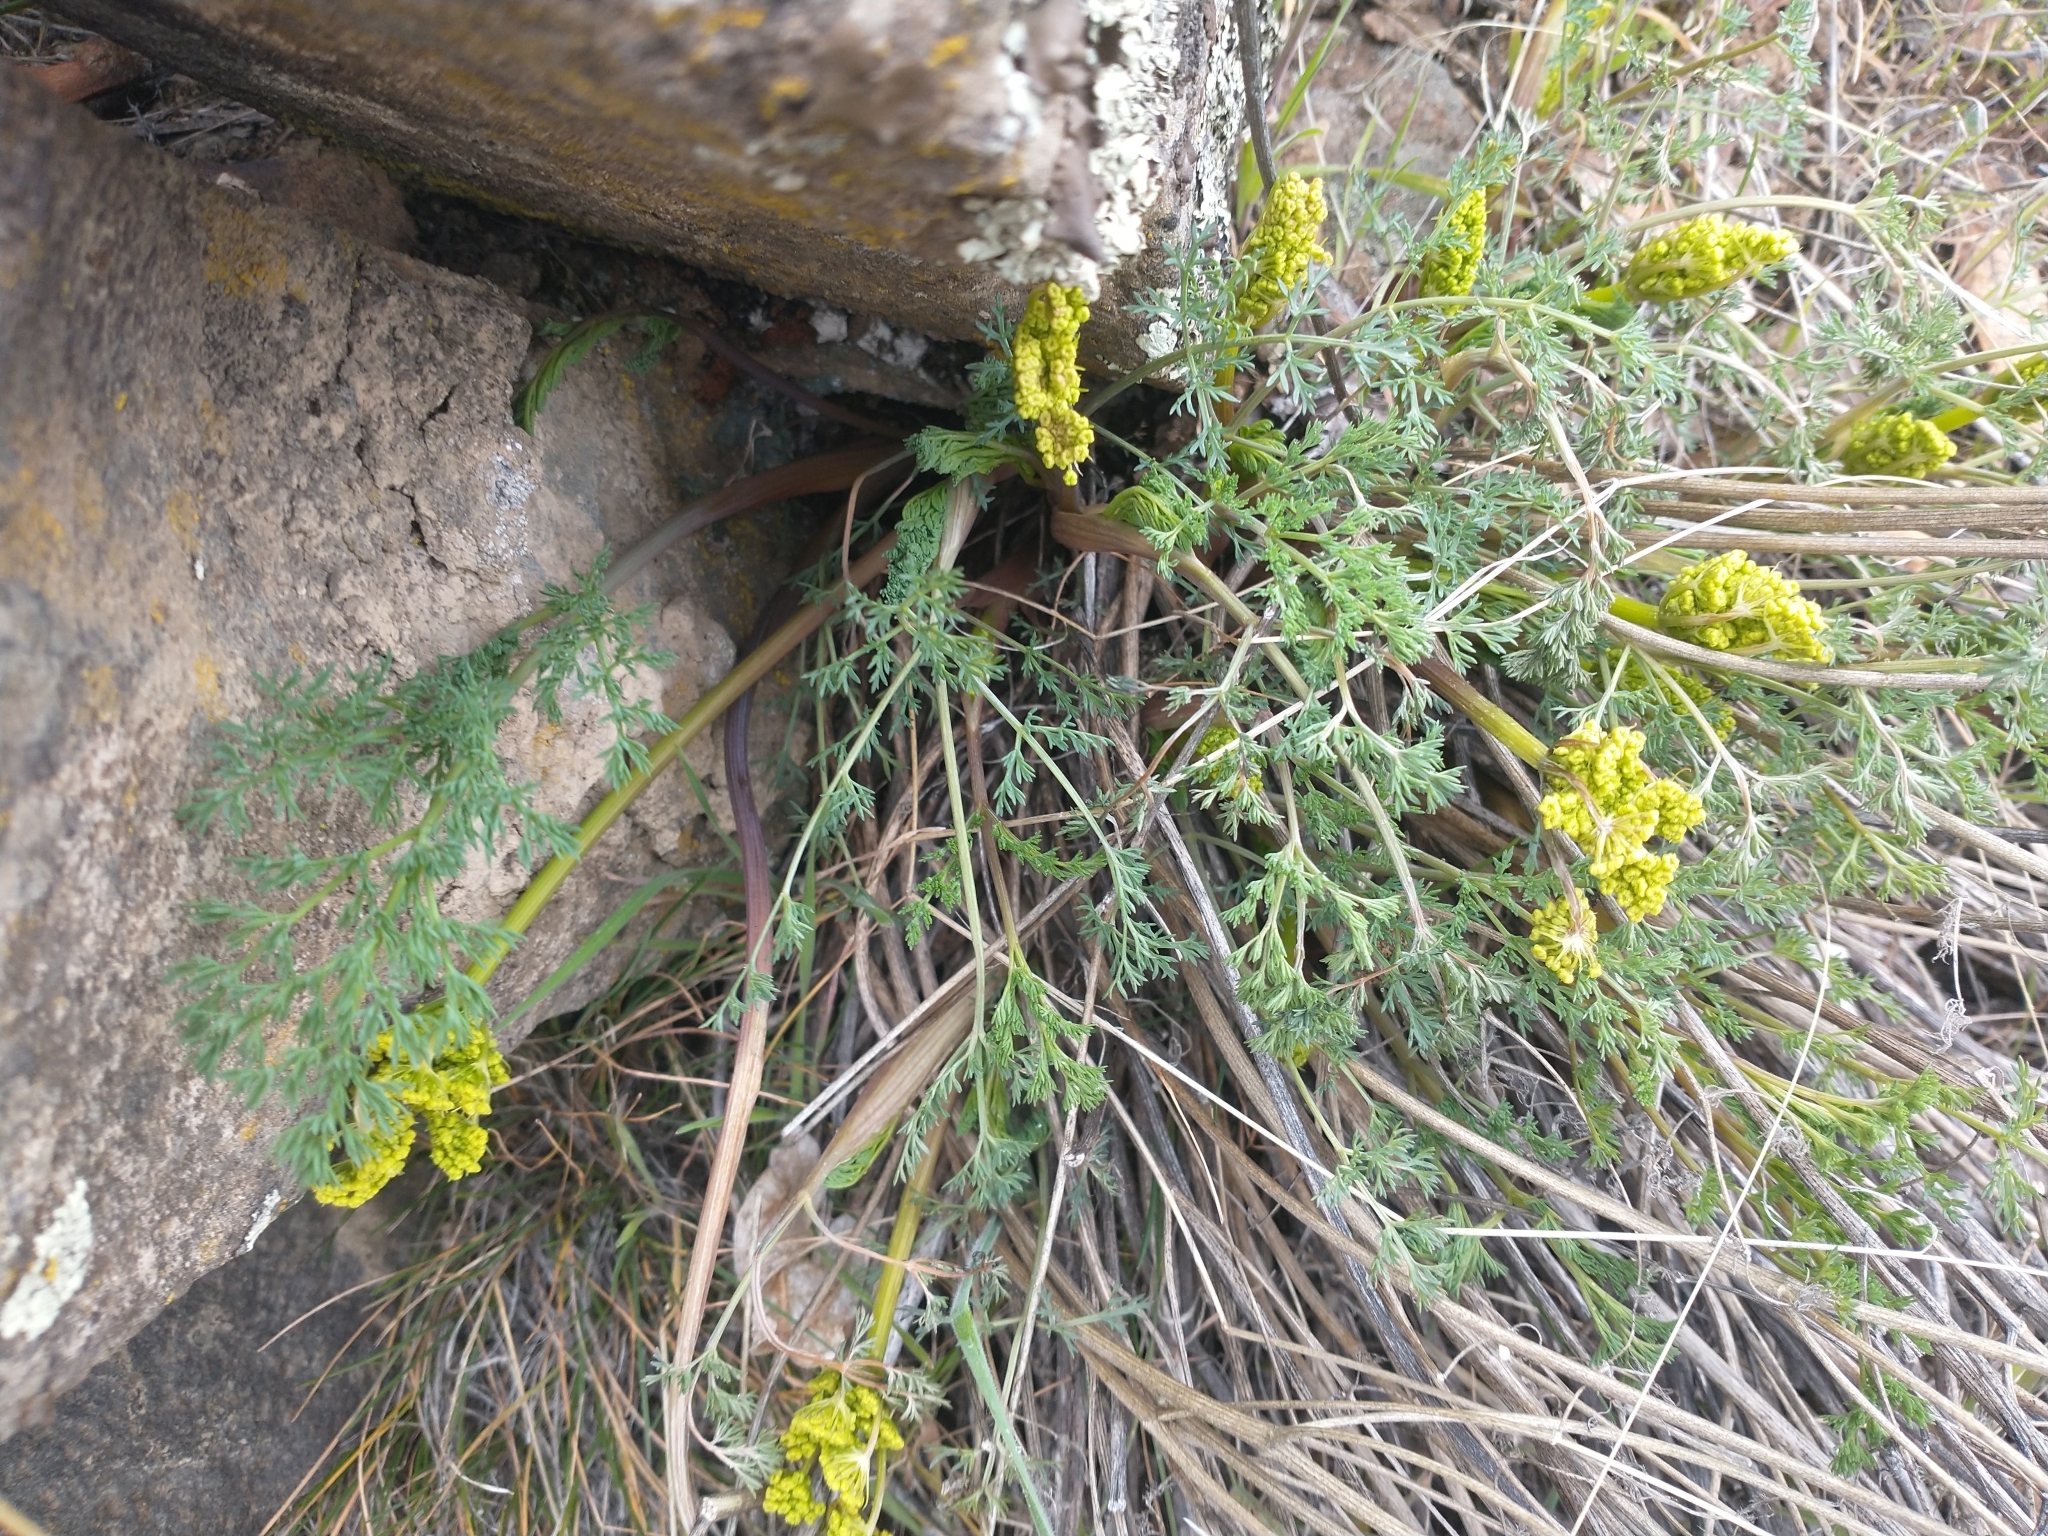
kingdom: Plantae
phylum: Tracheophyta
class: Magnoliopsida
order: Apiales
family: Apiaceae
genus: Lomatium
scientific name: Lomatium papilioniferum
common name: Butterfly lomatium
